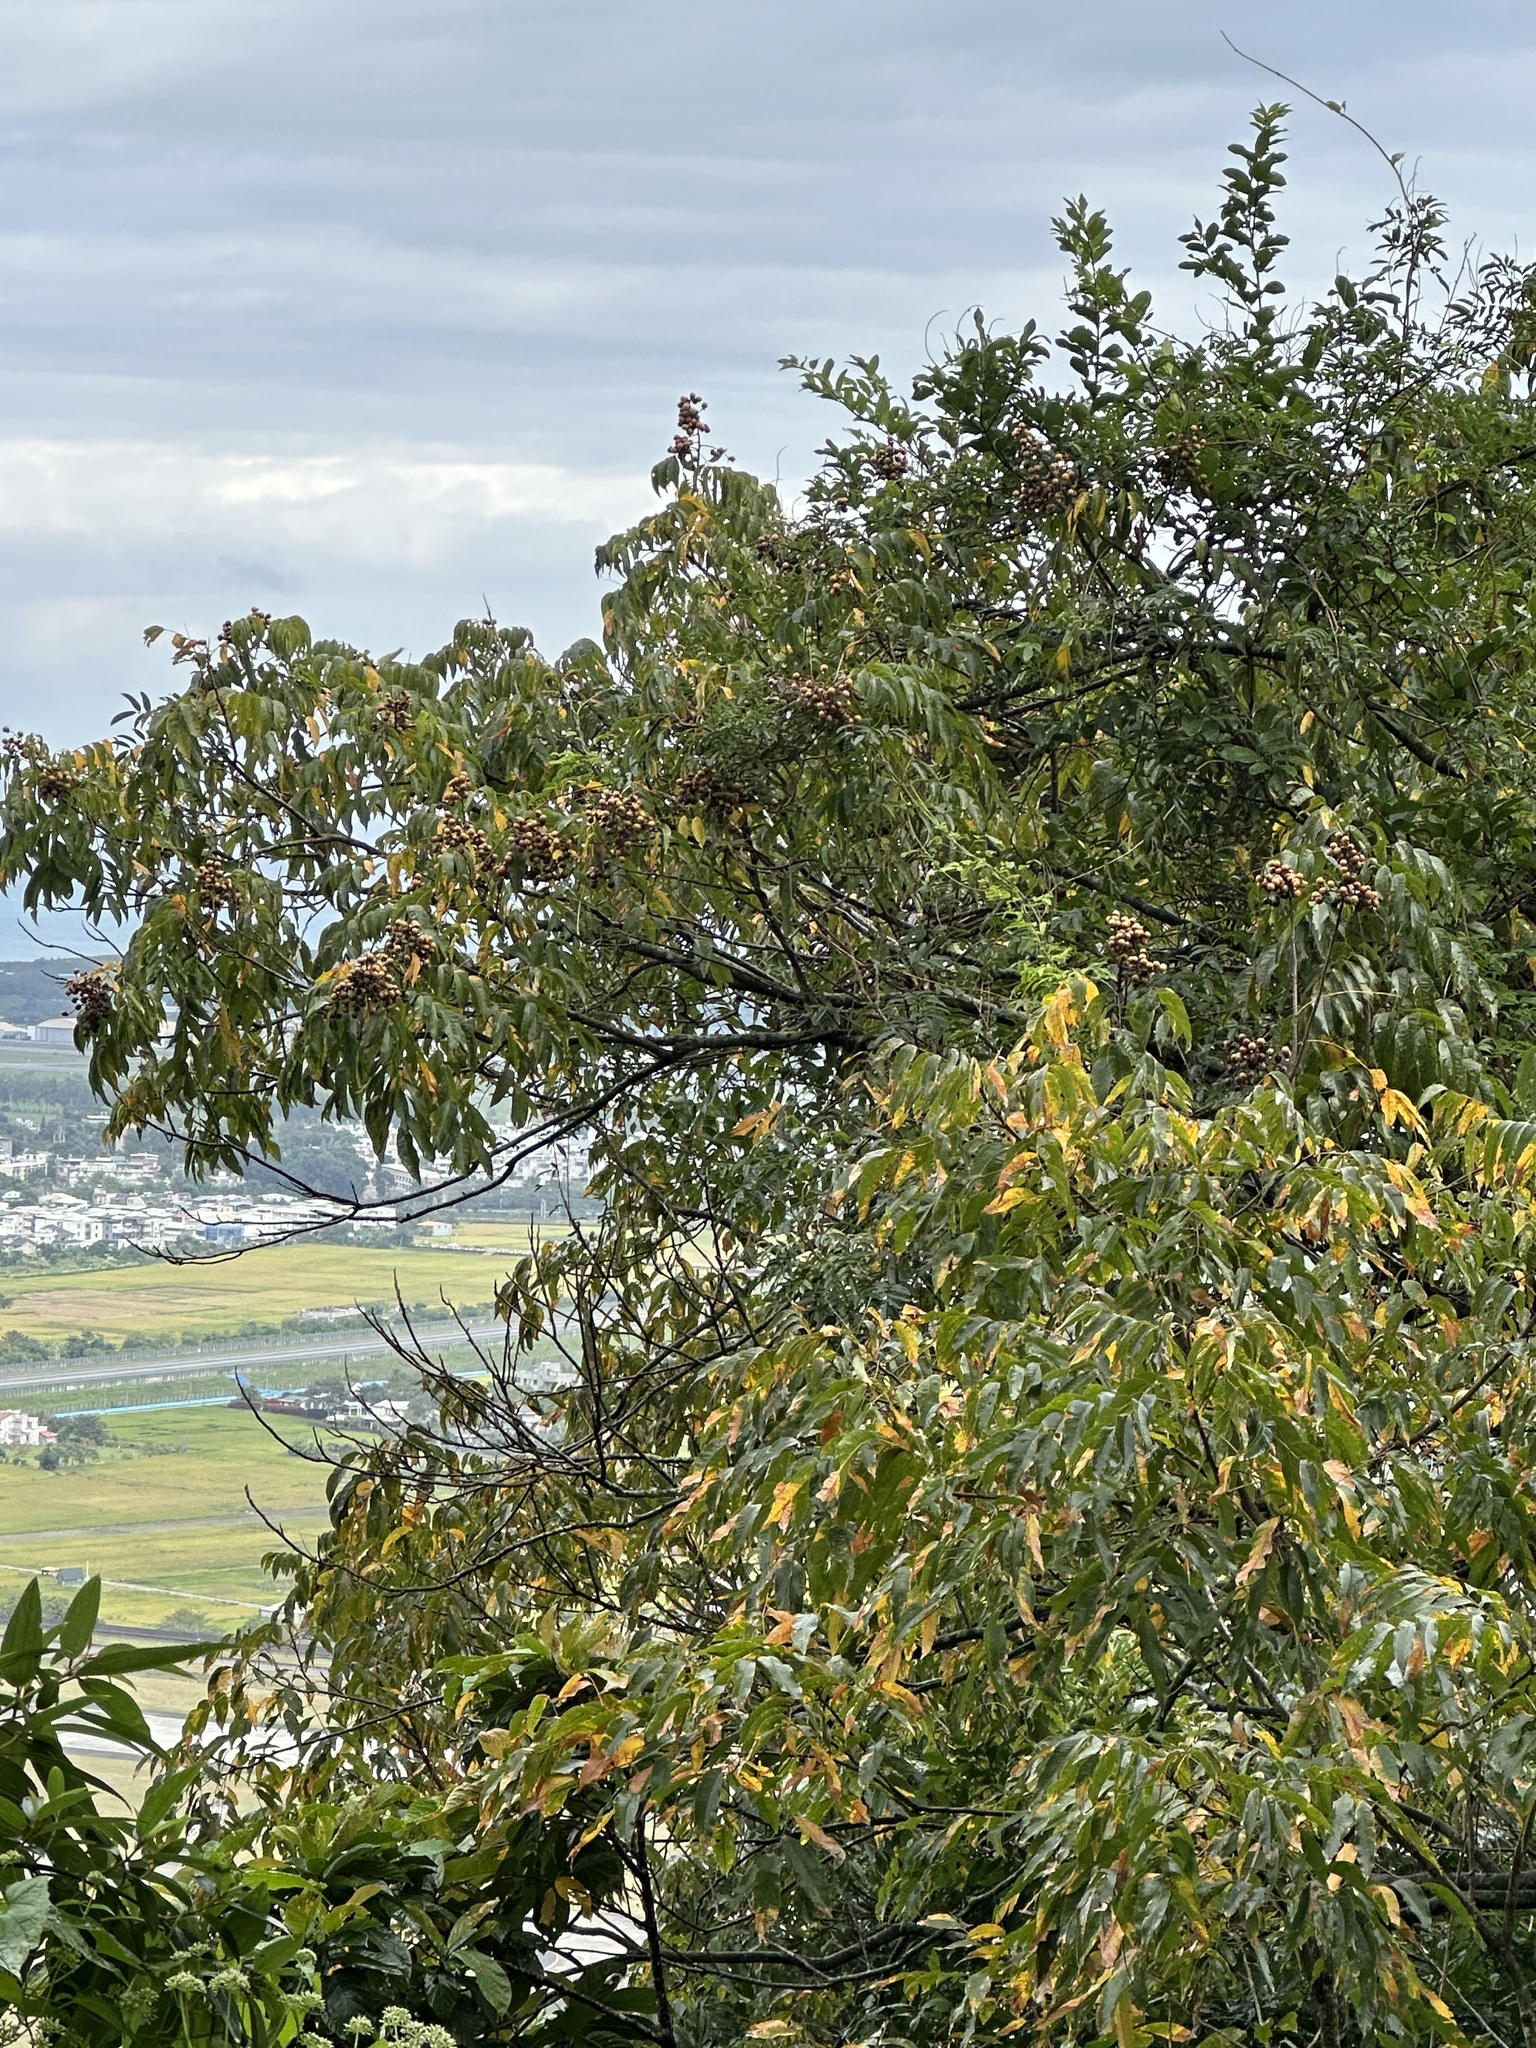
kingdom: Plantae
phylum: Tracheophyta
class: Magnoliopsida
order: Sapindales
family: Sapindaceae
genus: Sapindus
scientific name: Sapindus mukorossi
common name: Chinese soapberry
